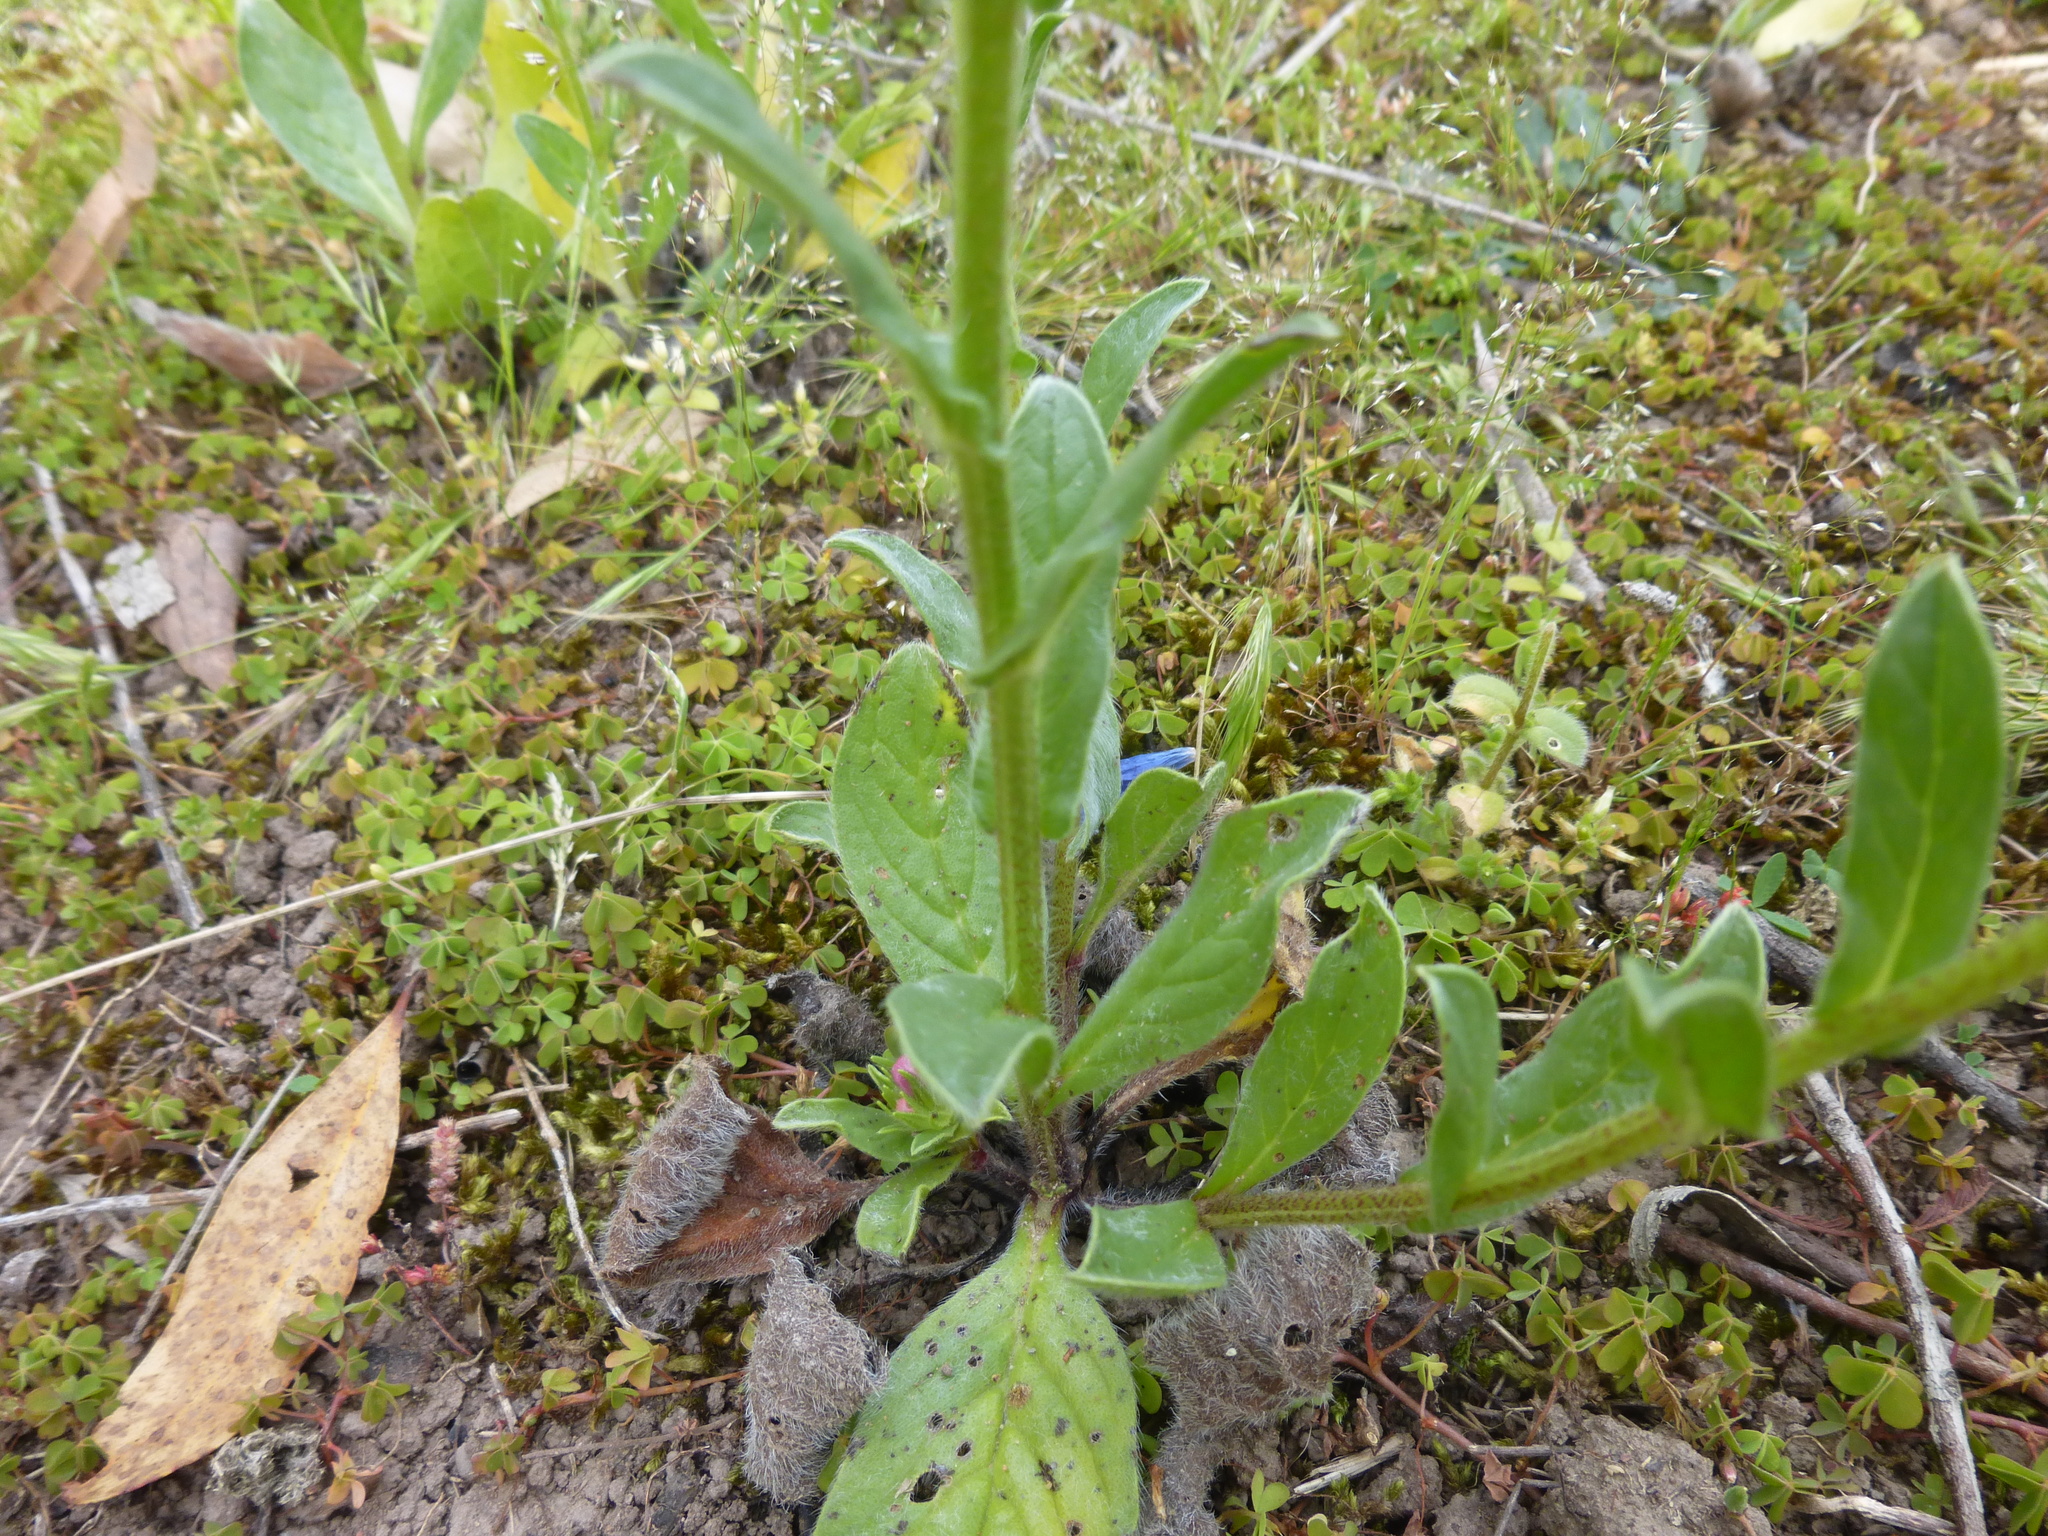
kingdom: Plantae
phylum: Tracheophyta
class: Magnoliopsida
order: Boraginales
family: Boraginaceae
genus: Echium
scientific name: Echium plantagineum
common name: Purple viper's-bugloss
